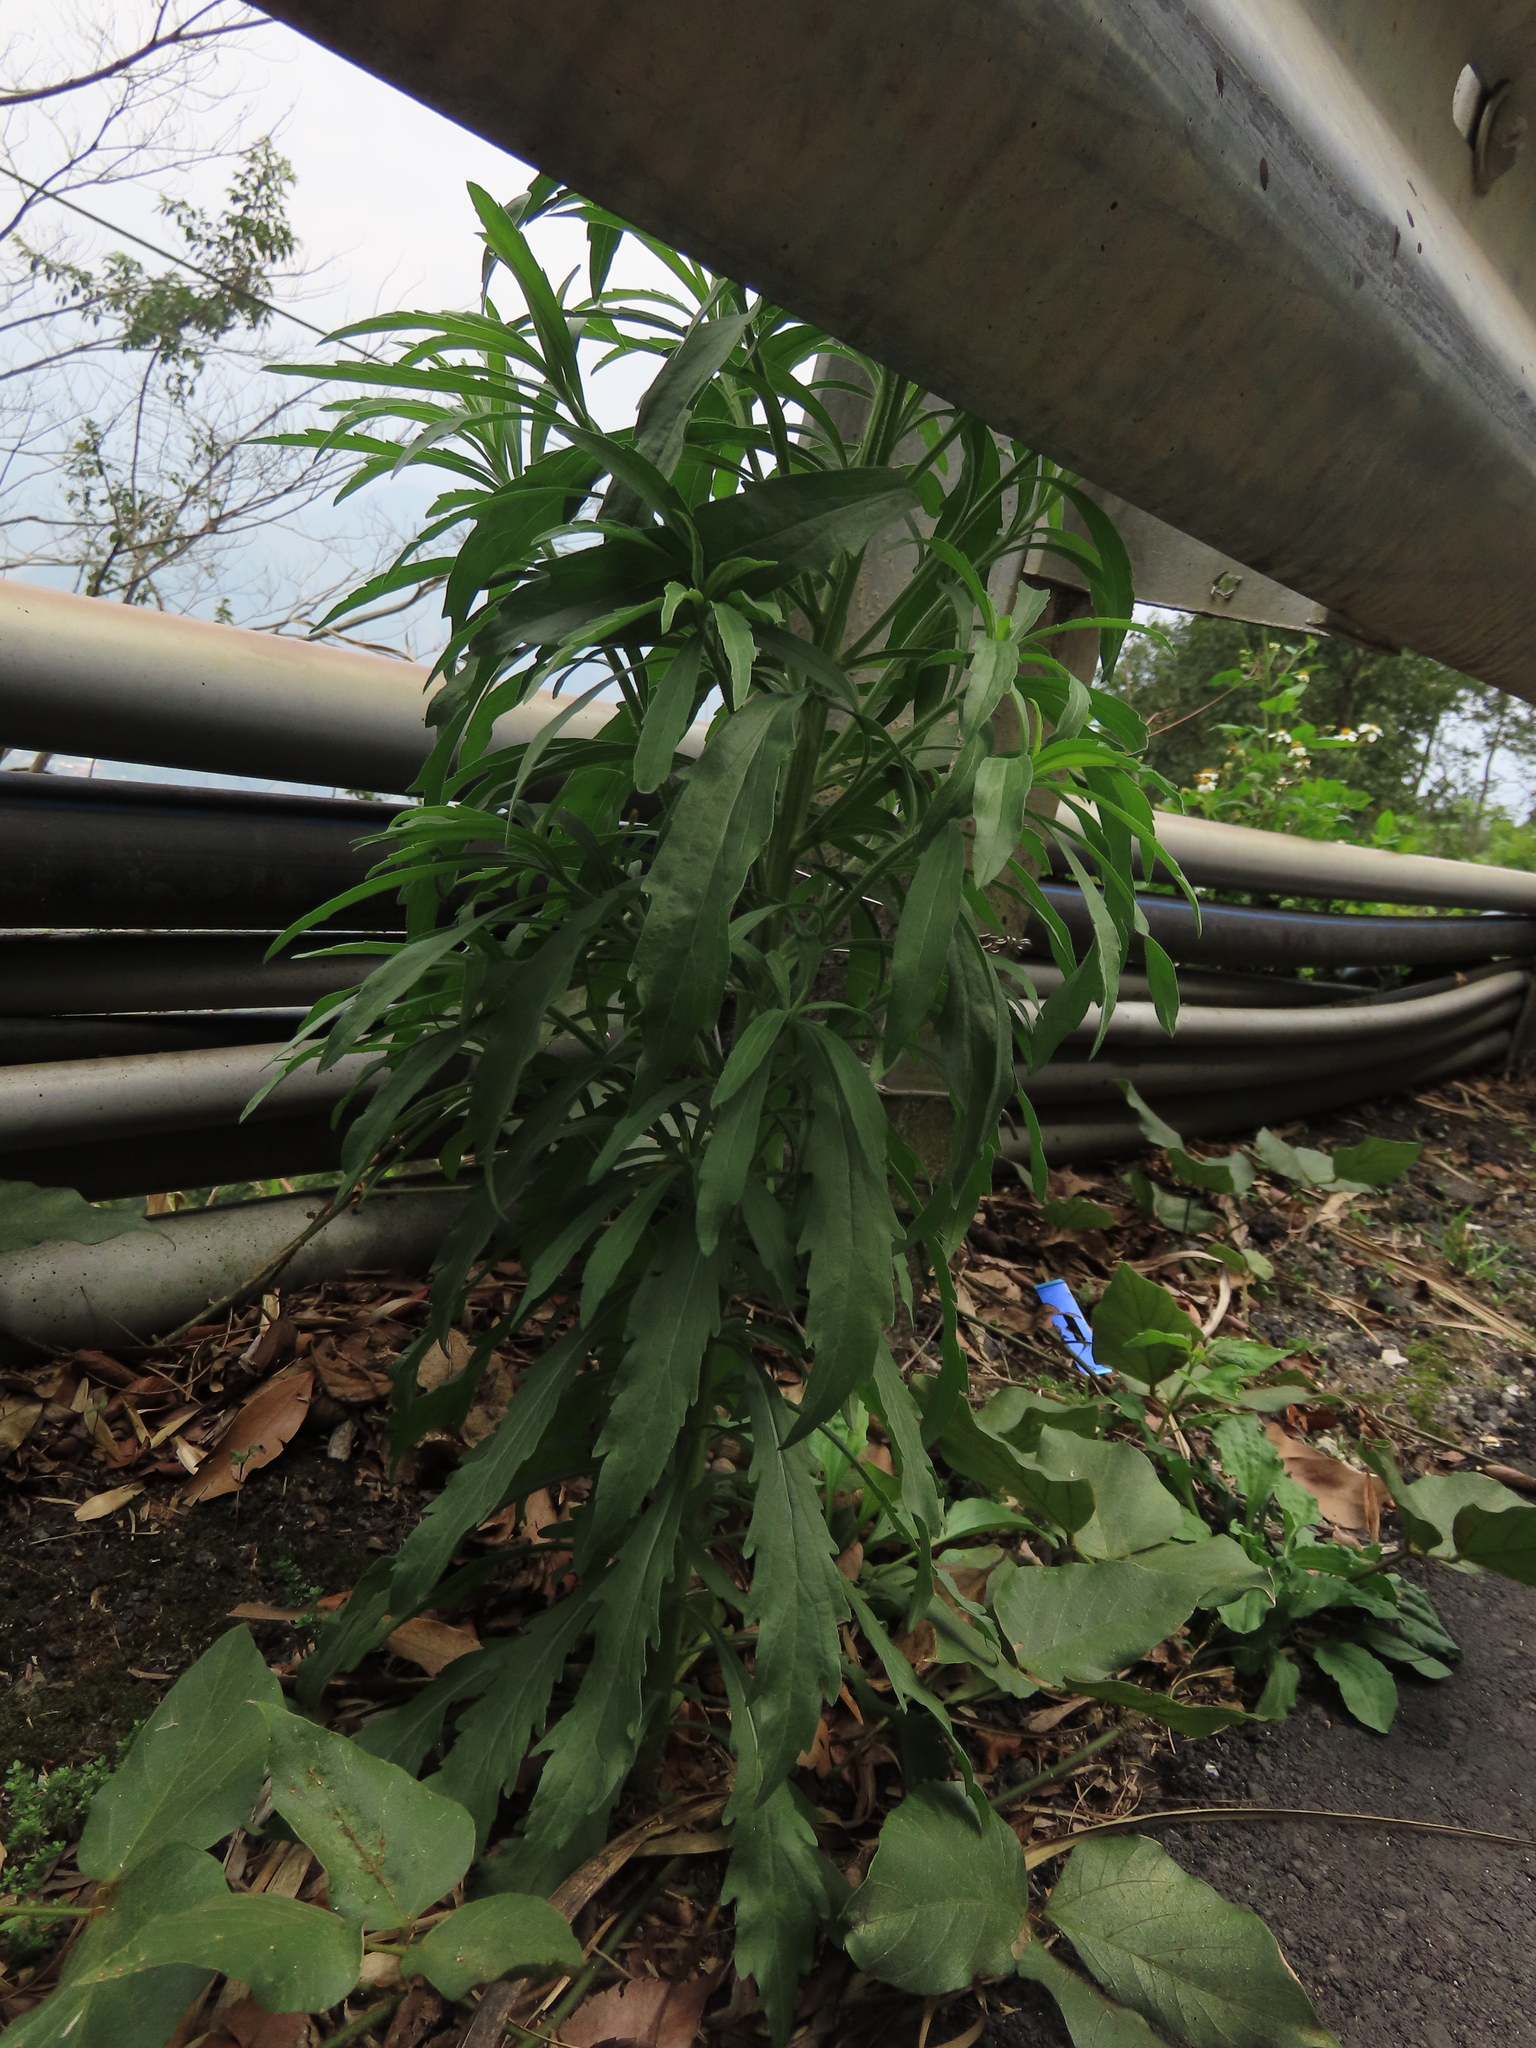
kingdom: Plantae
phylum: Tracheophyta
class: Magnoliopsida
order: Asterales
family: Asteraceae
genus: Erigeron
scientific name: Erigeron sumatrensis
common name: Daisy
